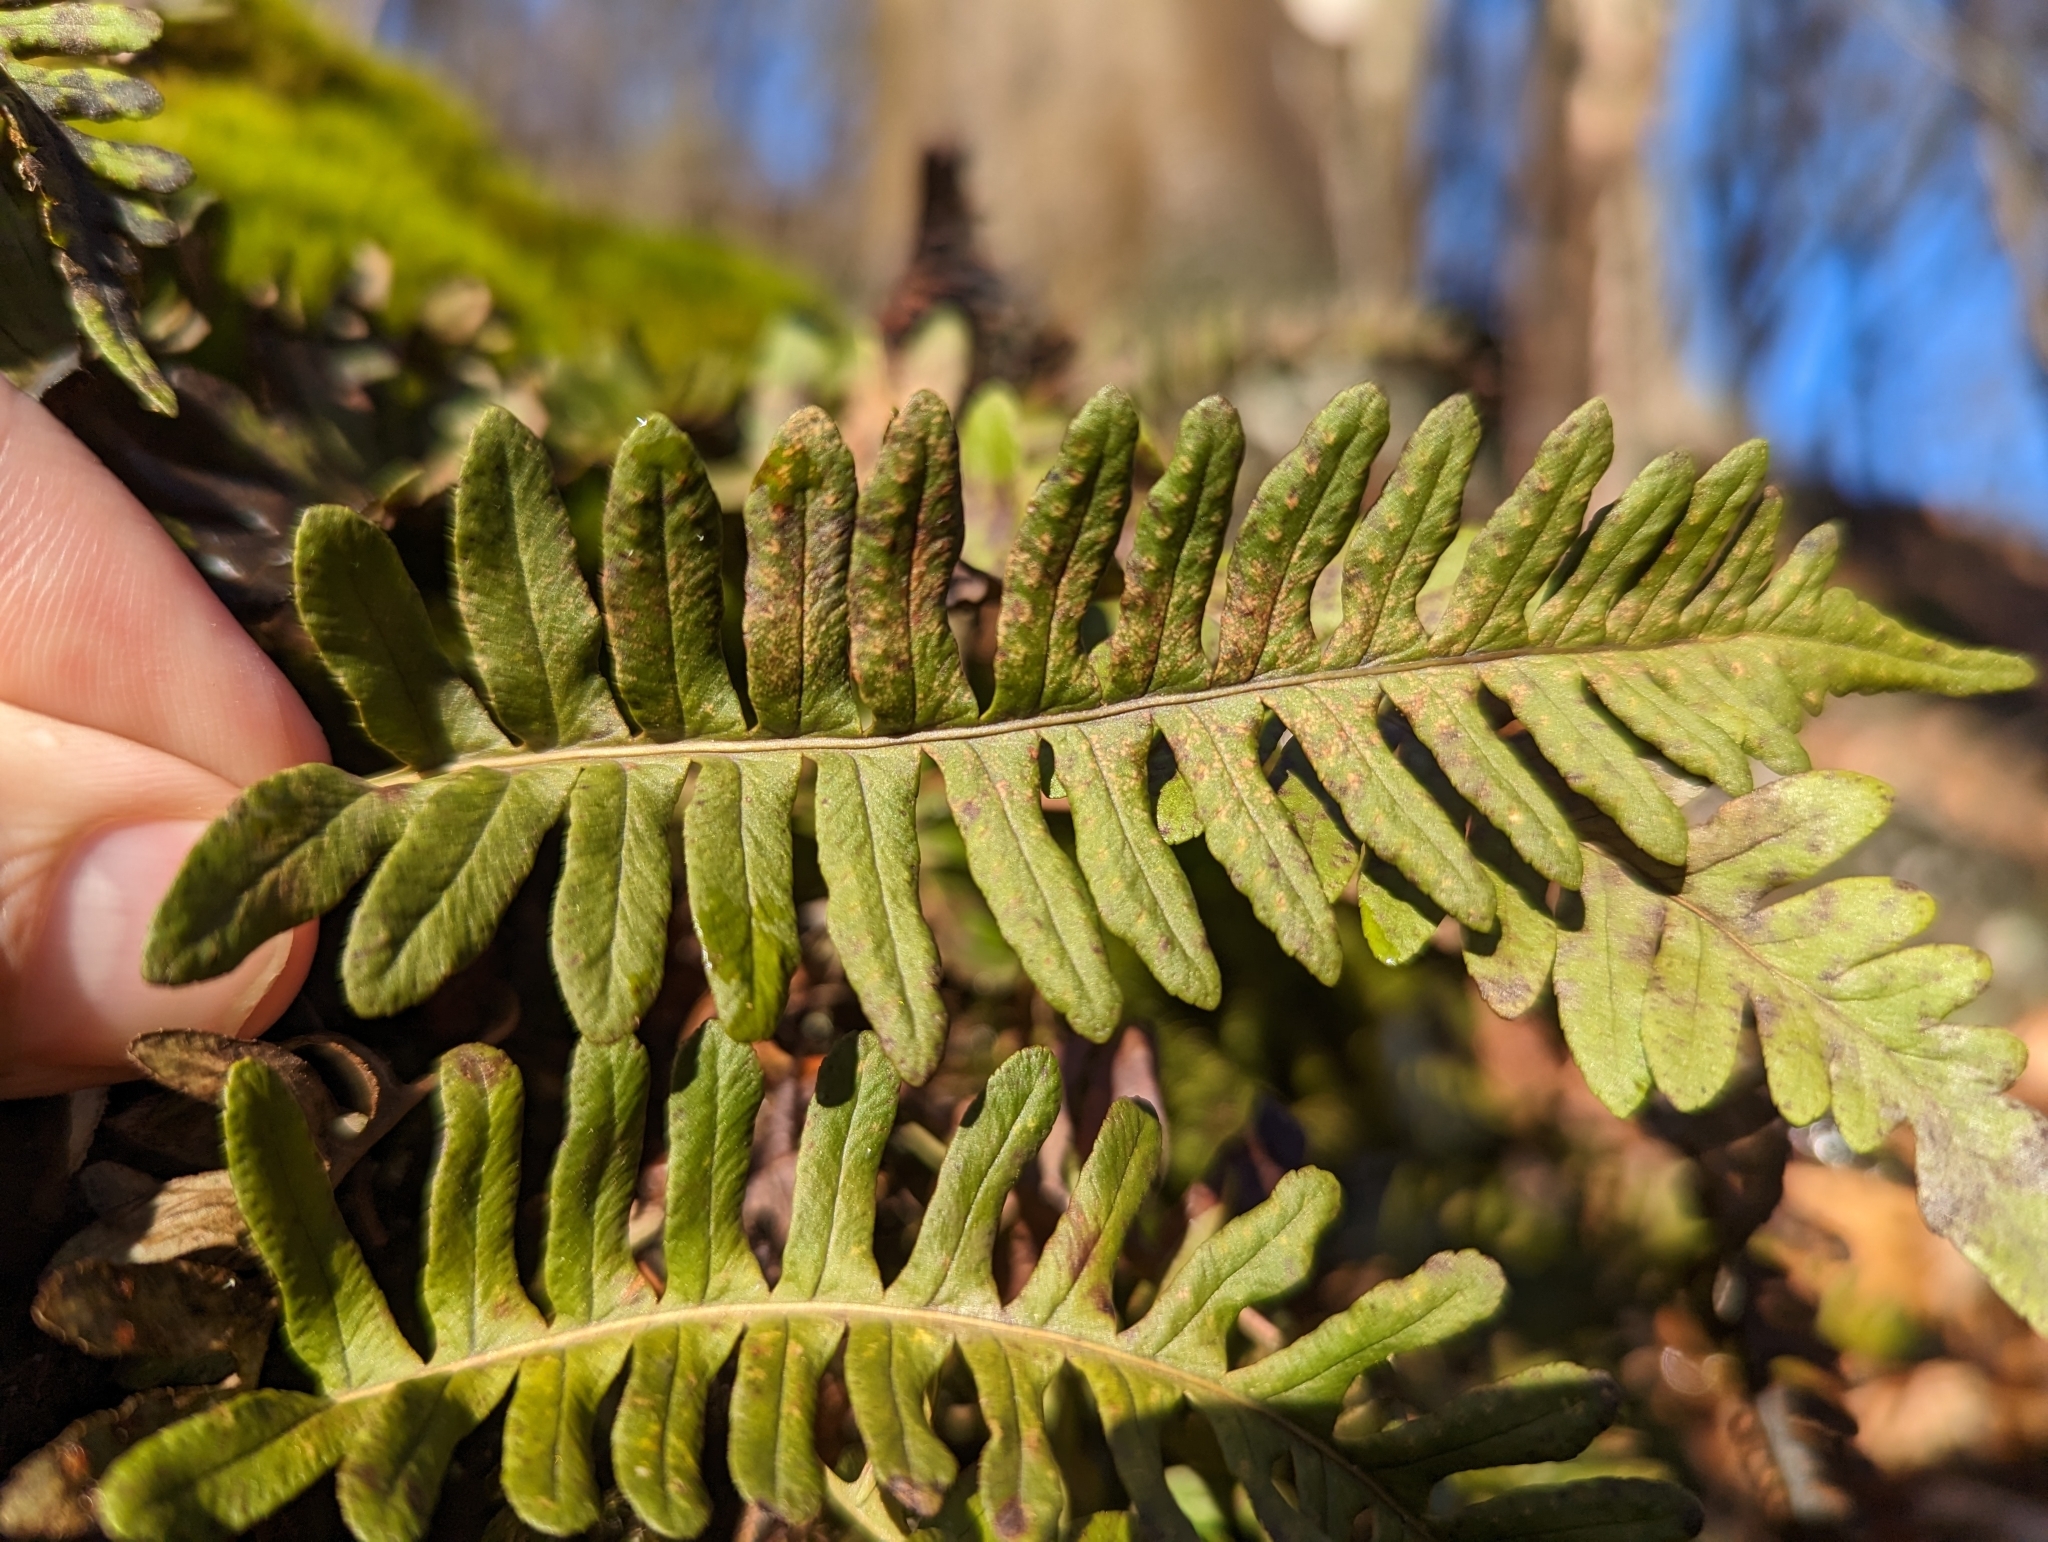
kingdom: Plantae
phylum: Tracheophyta
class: Polypodiopsida
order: Polypodiales
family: Polypodiaceae
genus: Polypodium
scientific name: Polypodium virginianum
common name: American wall fern
